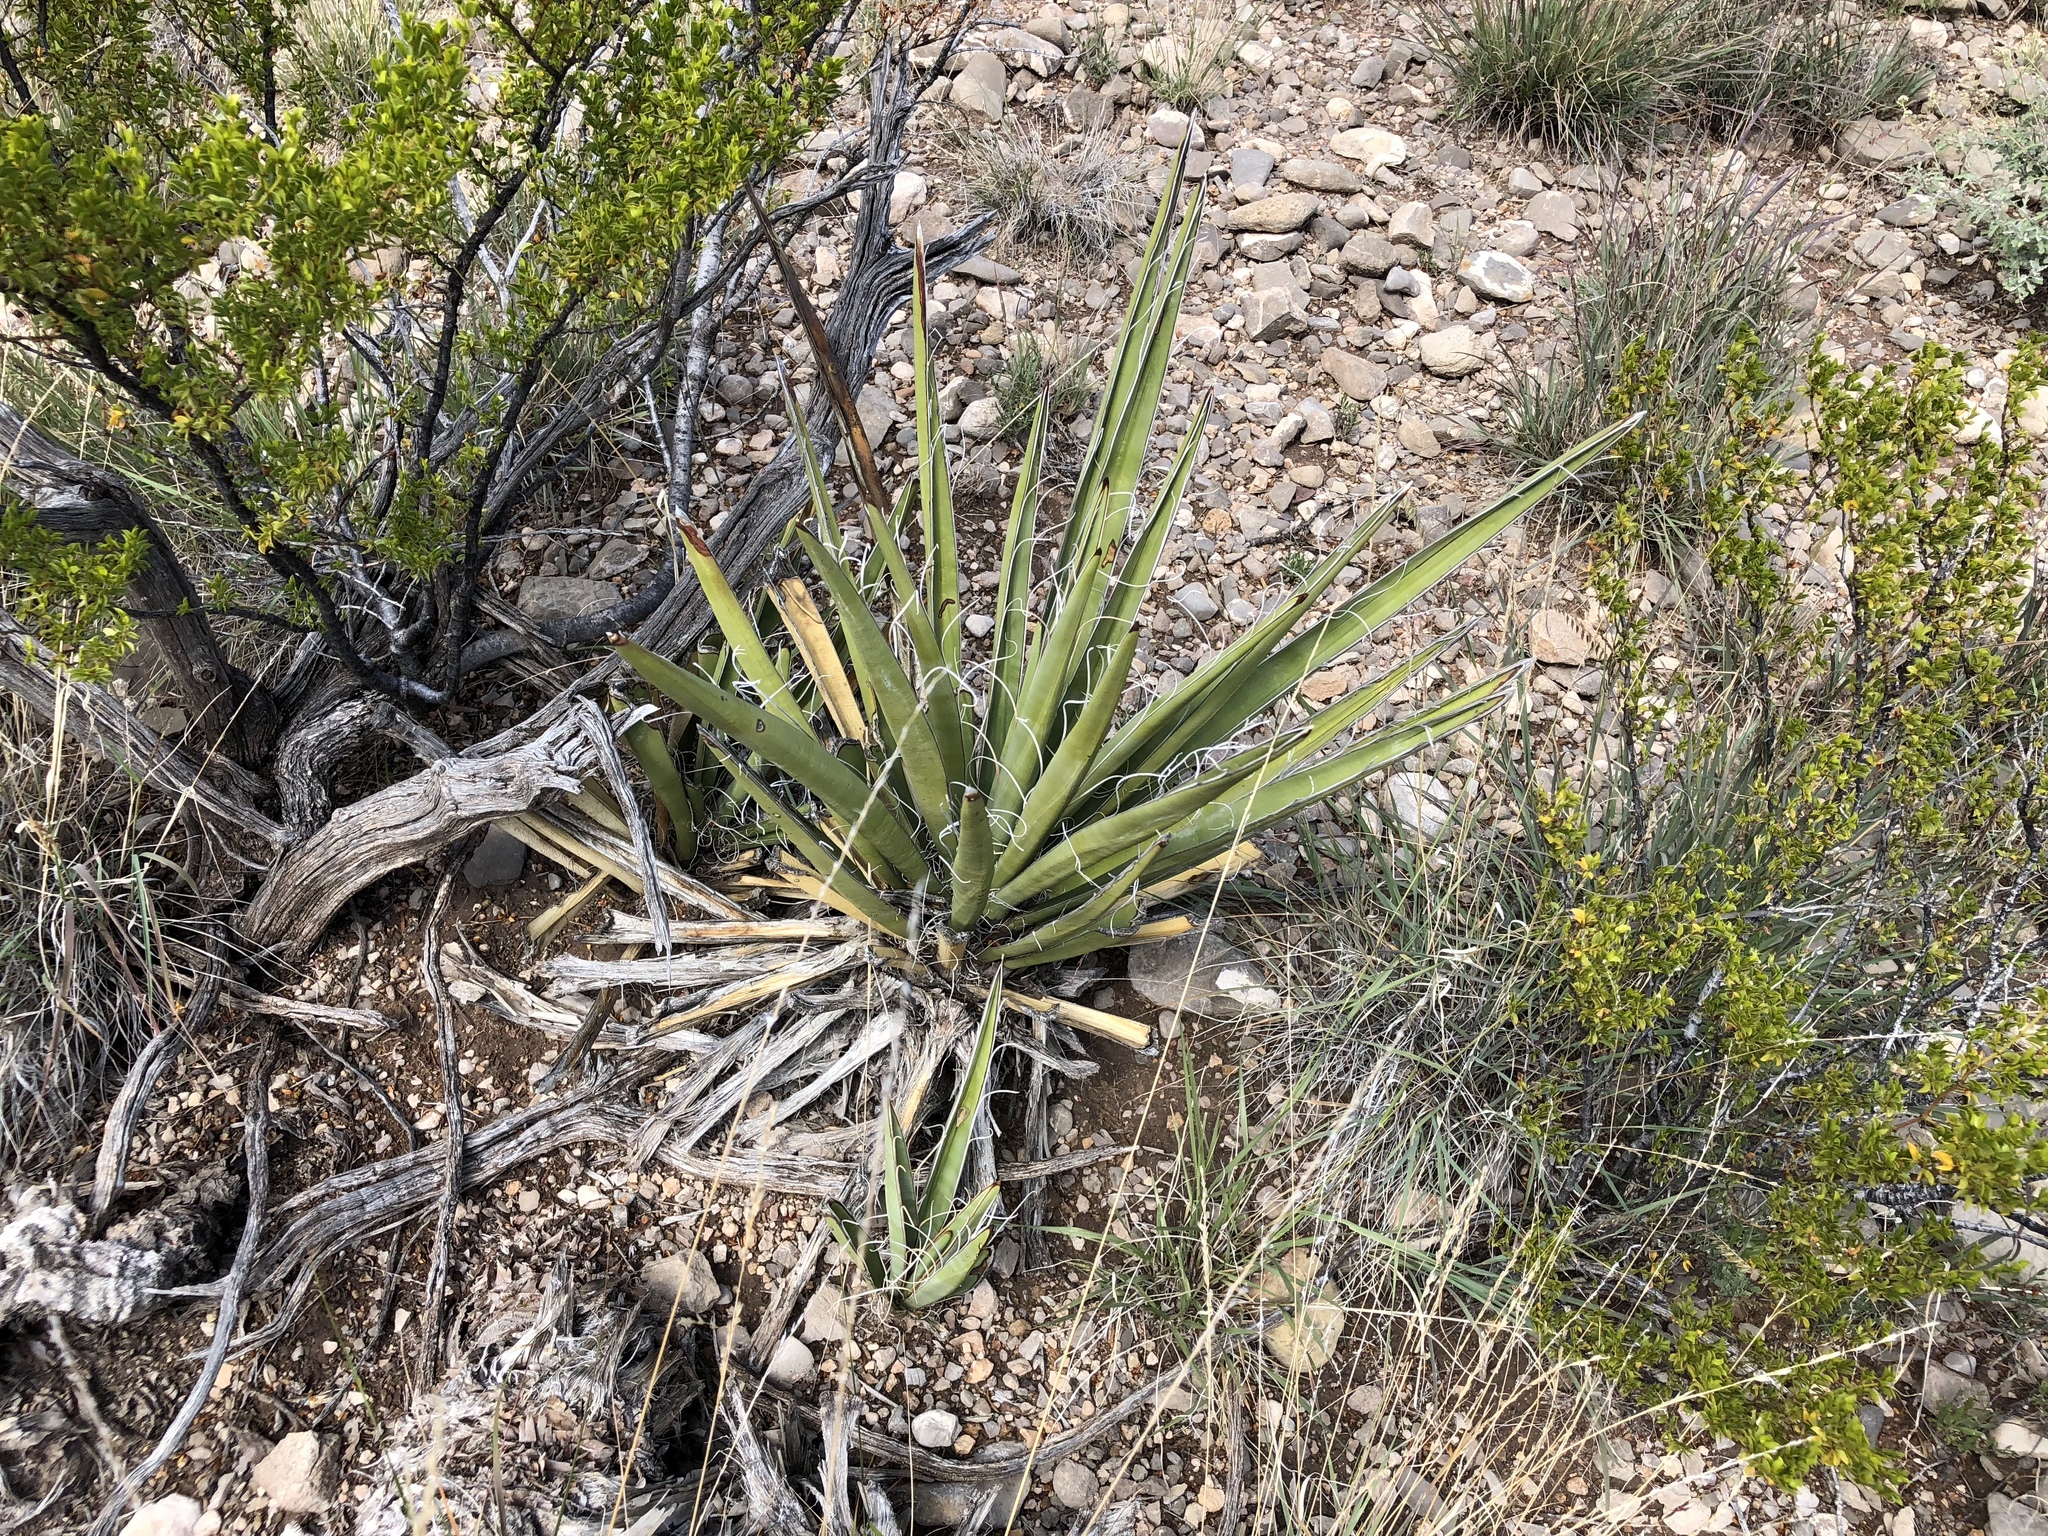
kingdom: Plantae
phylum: Tracheophyta
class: Liliopsida
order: Asparagales
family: Asparagaceae
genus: Yucca
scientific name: Yucca baccata
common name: Banana yucca
